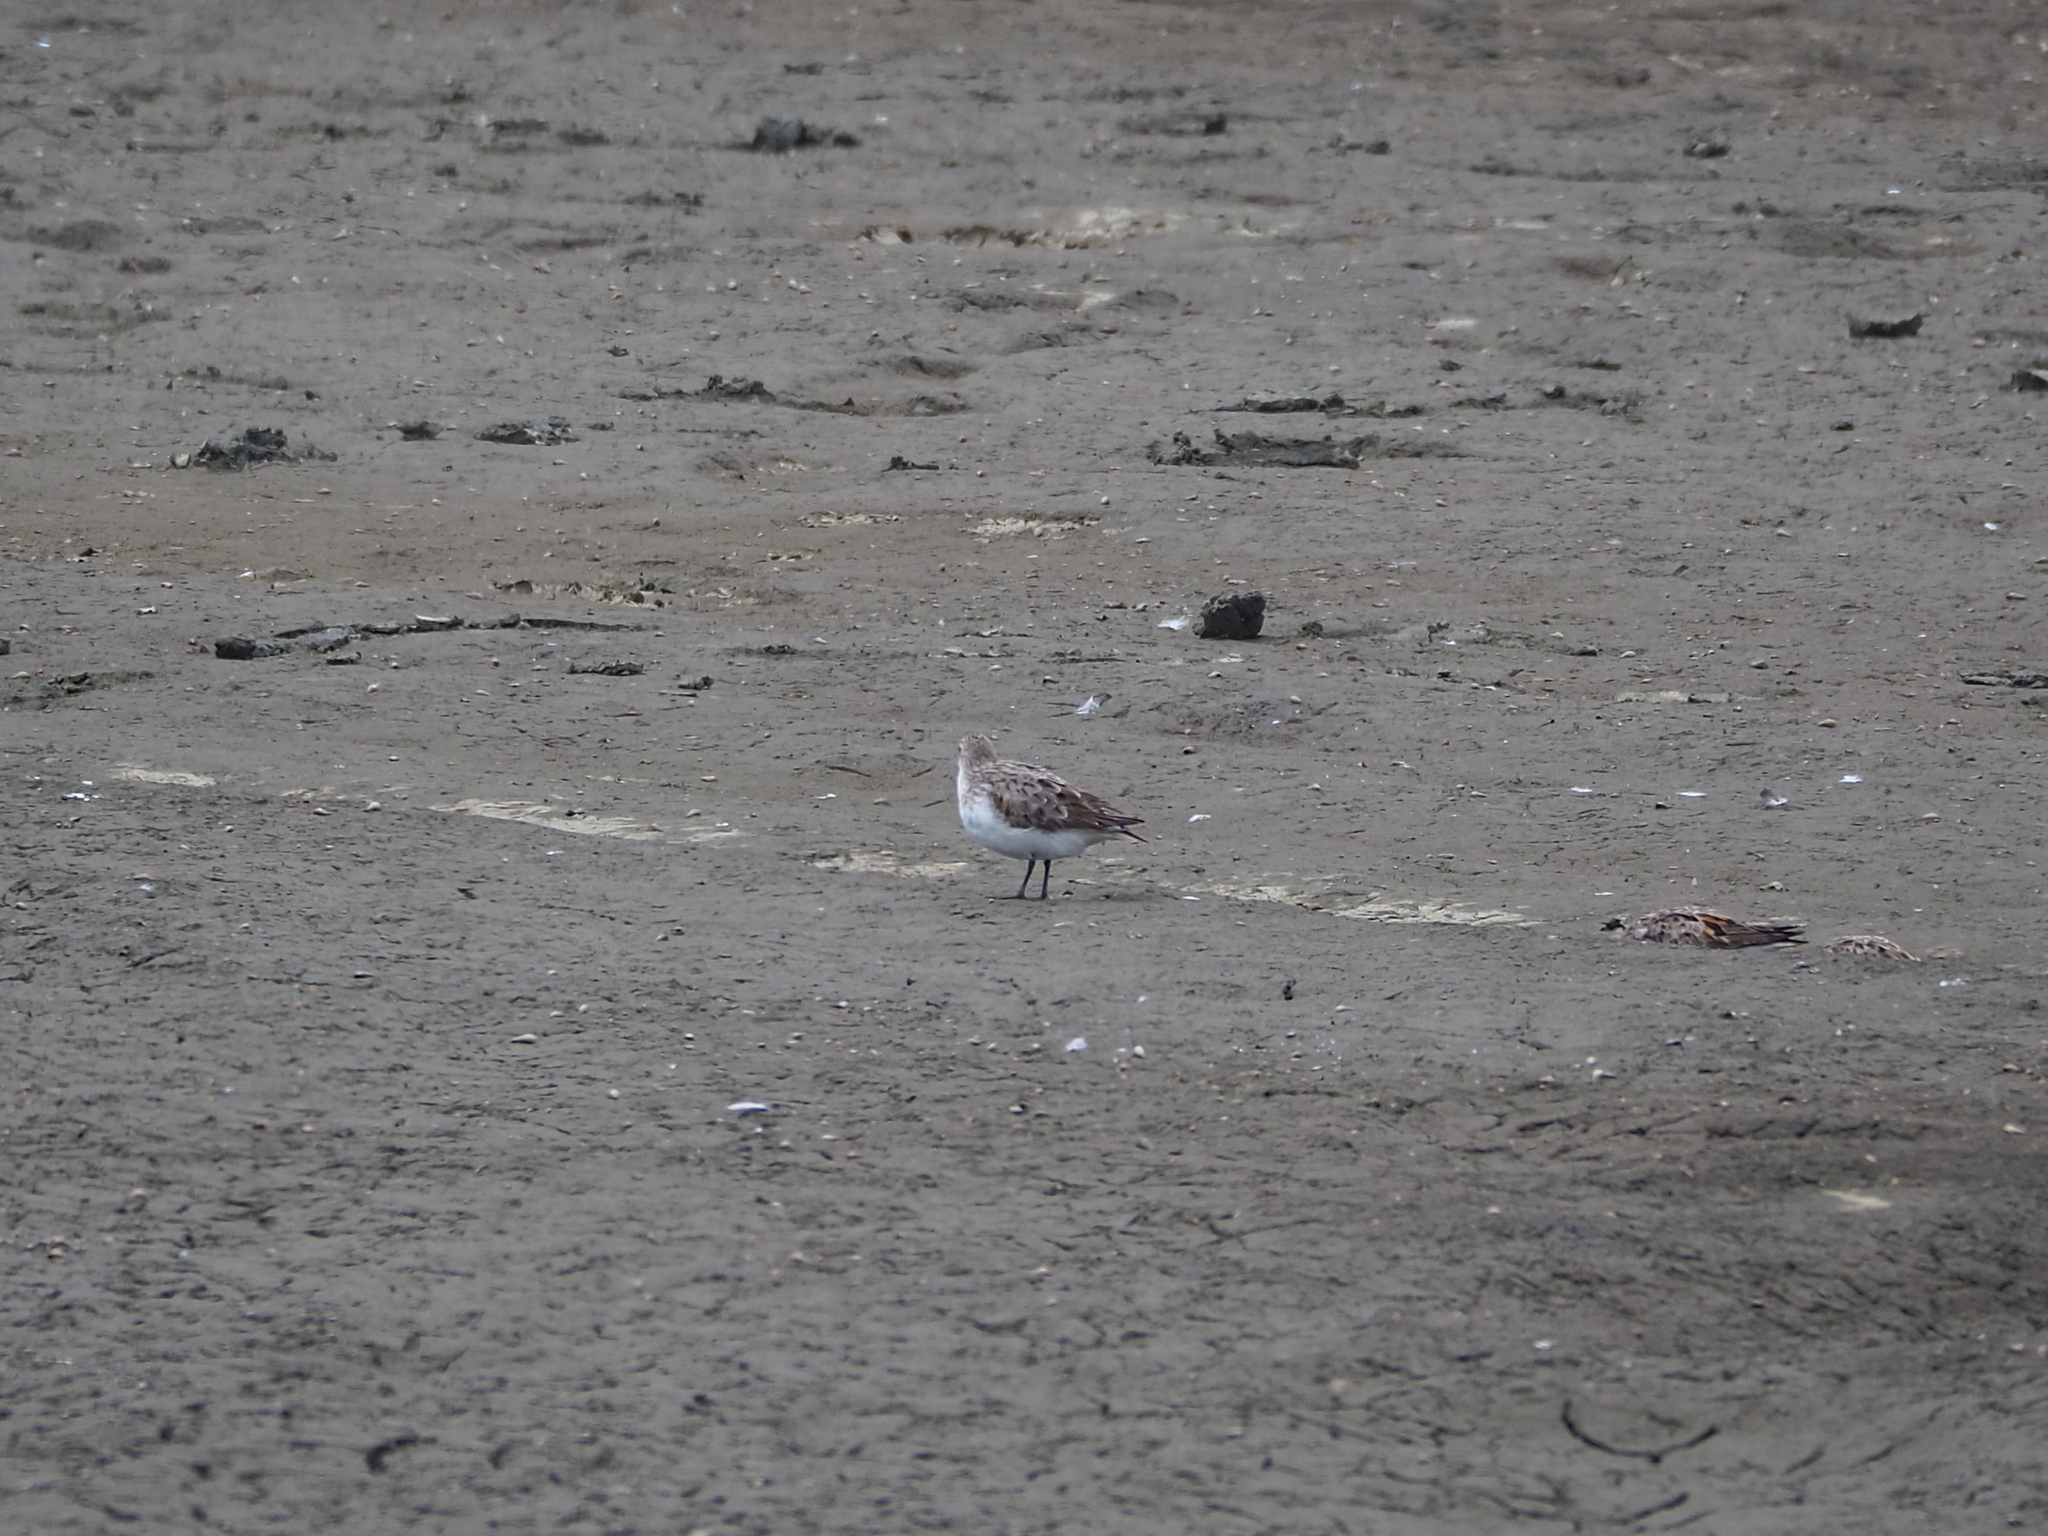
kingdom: Animalia
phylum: Chordata
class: Aves
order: Charadriiformes
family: Scolopacidae
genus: Calidris
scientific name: Calidris ruficollis
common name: Red-necked stint
